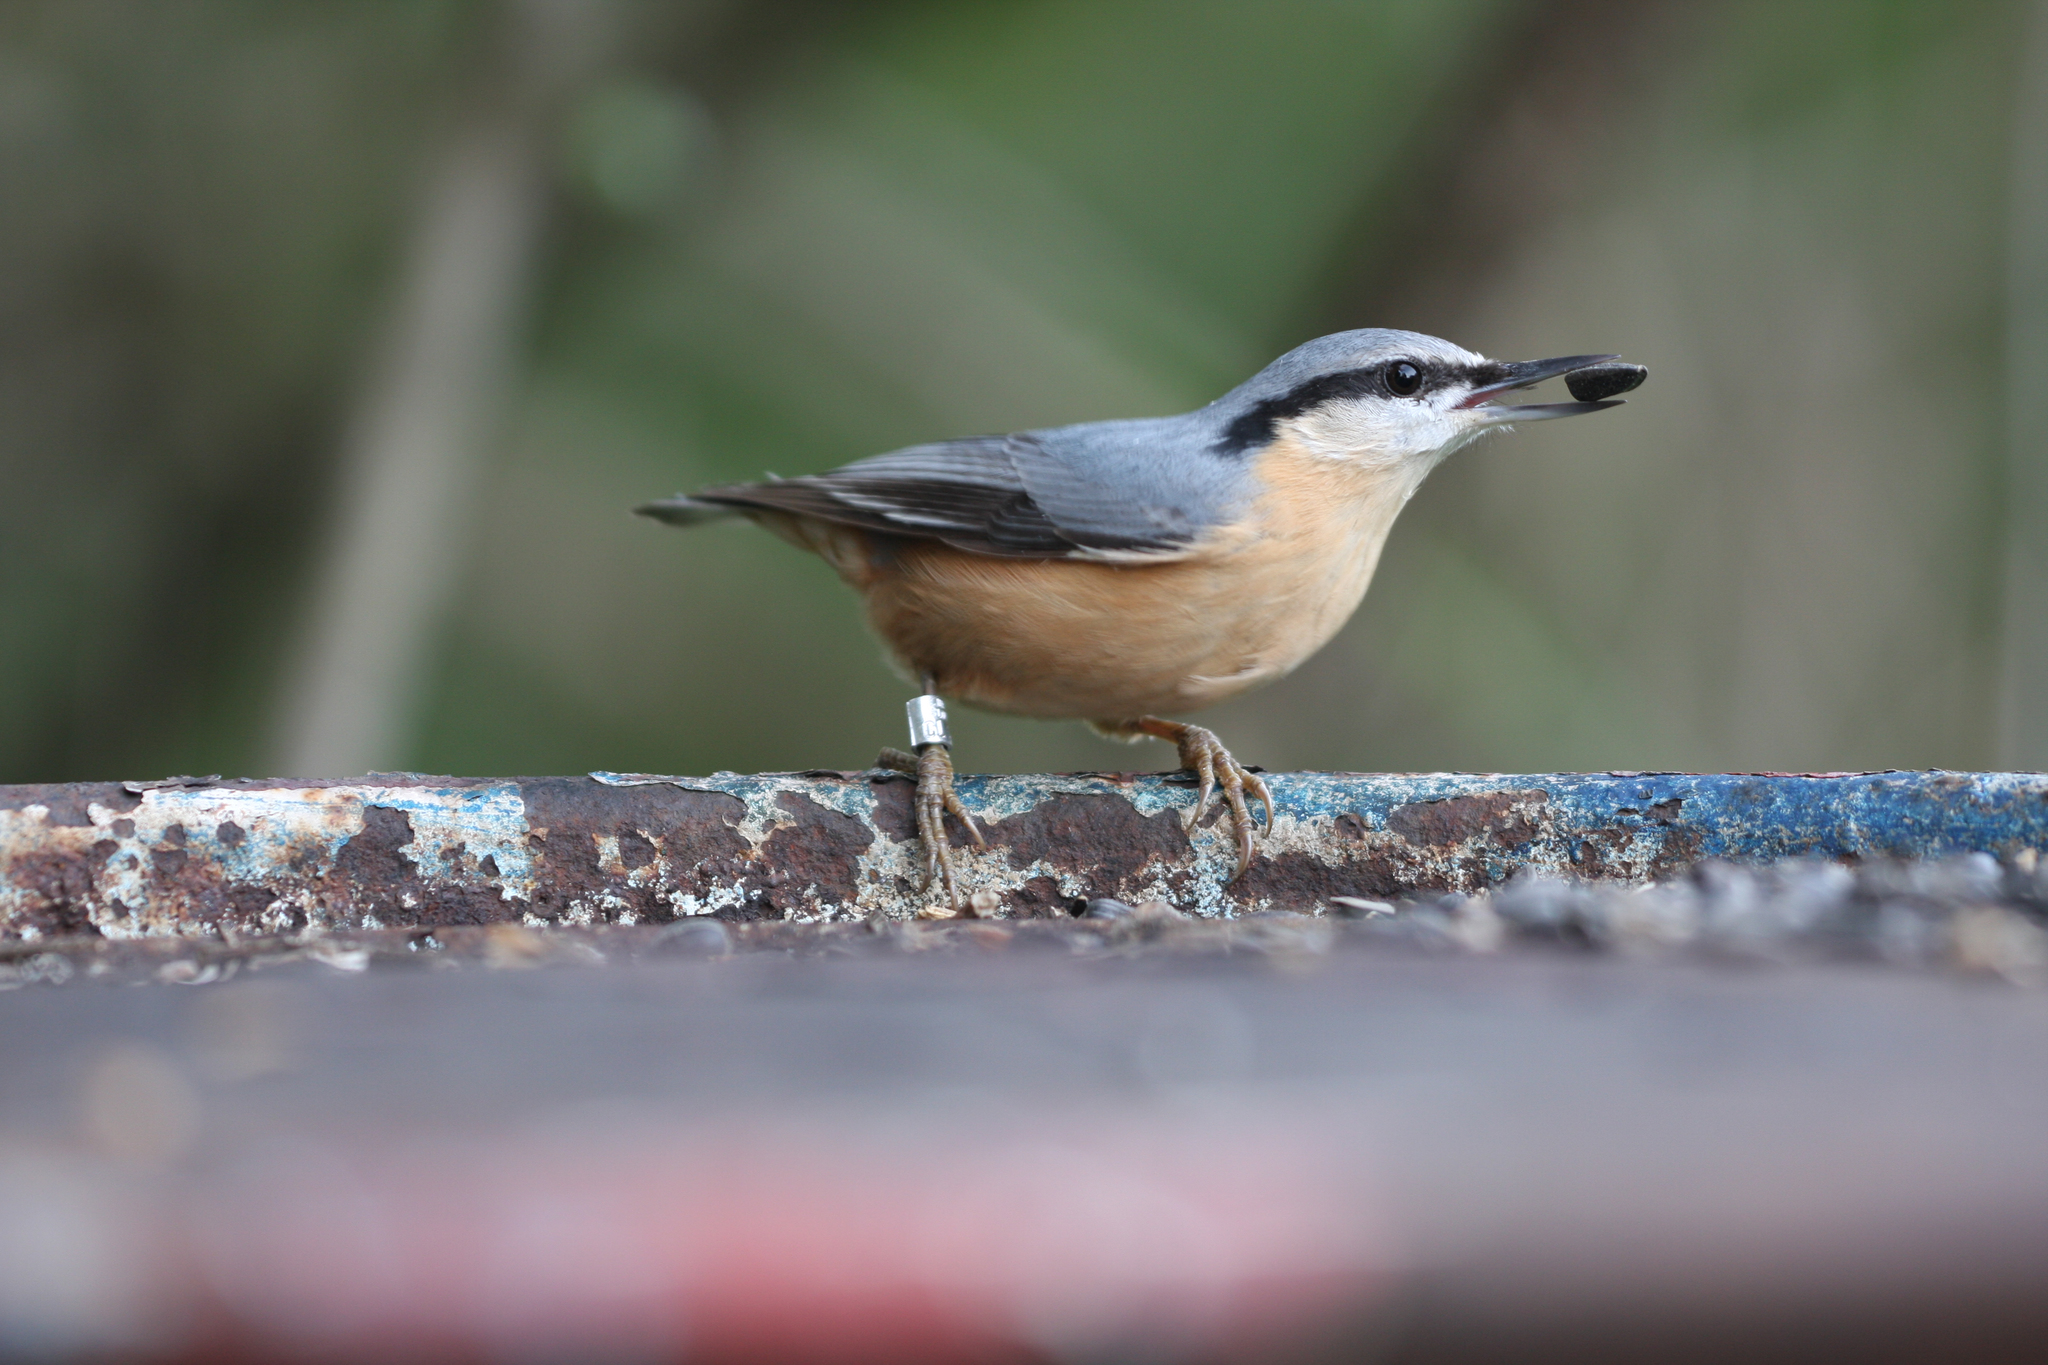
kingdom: Animalia
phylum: Chordata
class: Aves
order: Passeriformes
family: Sittidae
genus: Sitta
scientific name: Sitta europaea
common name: Eurasian nuthatch
